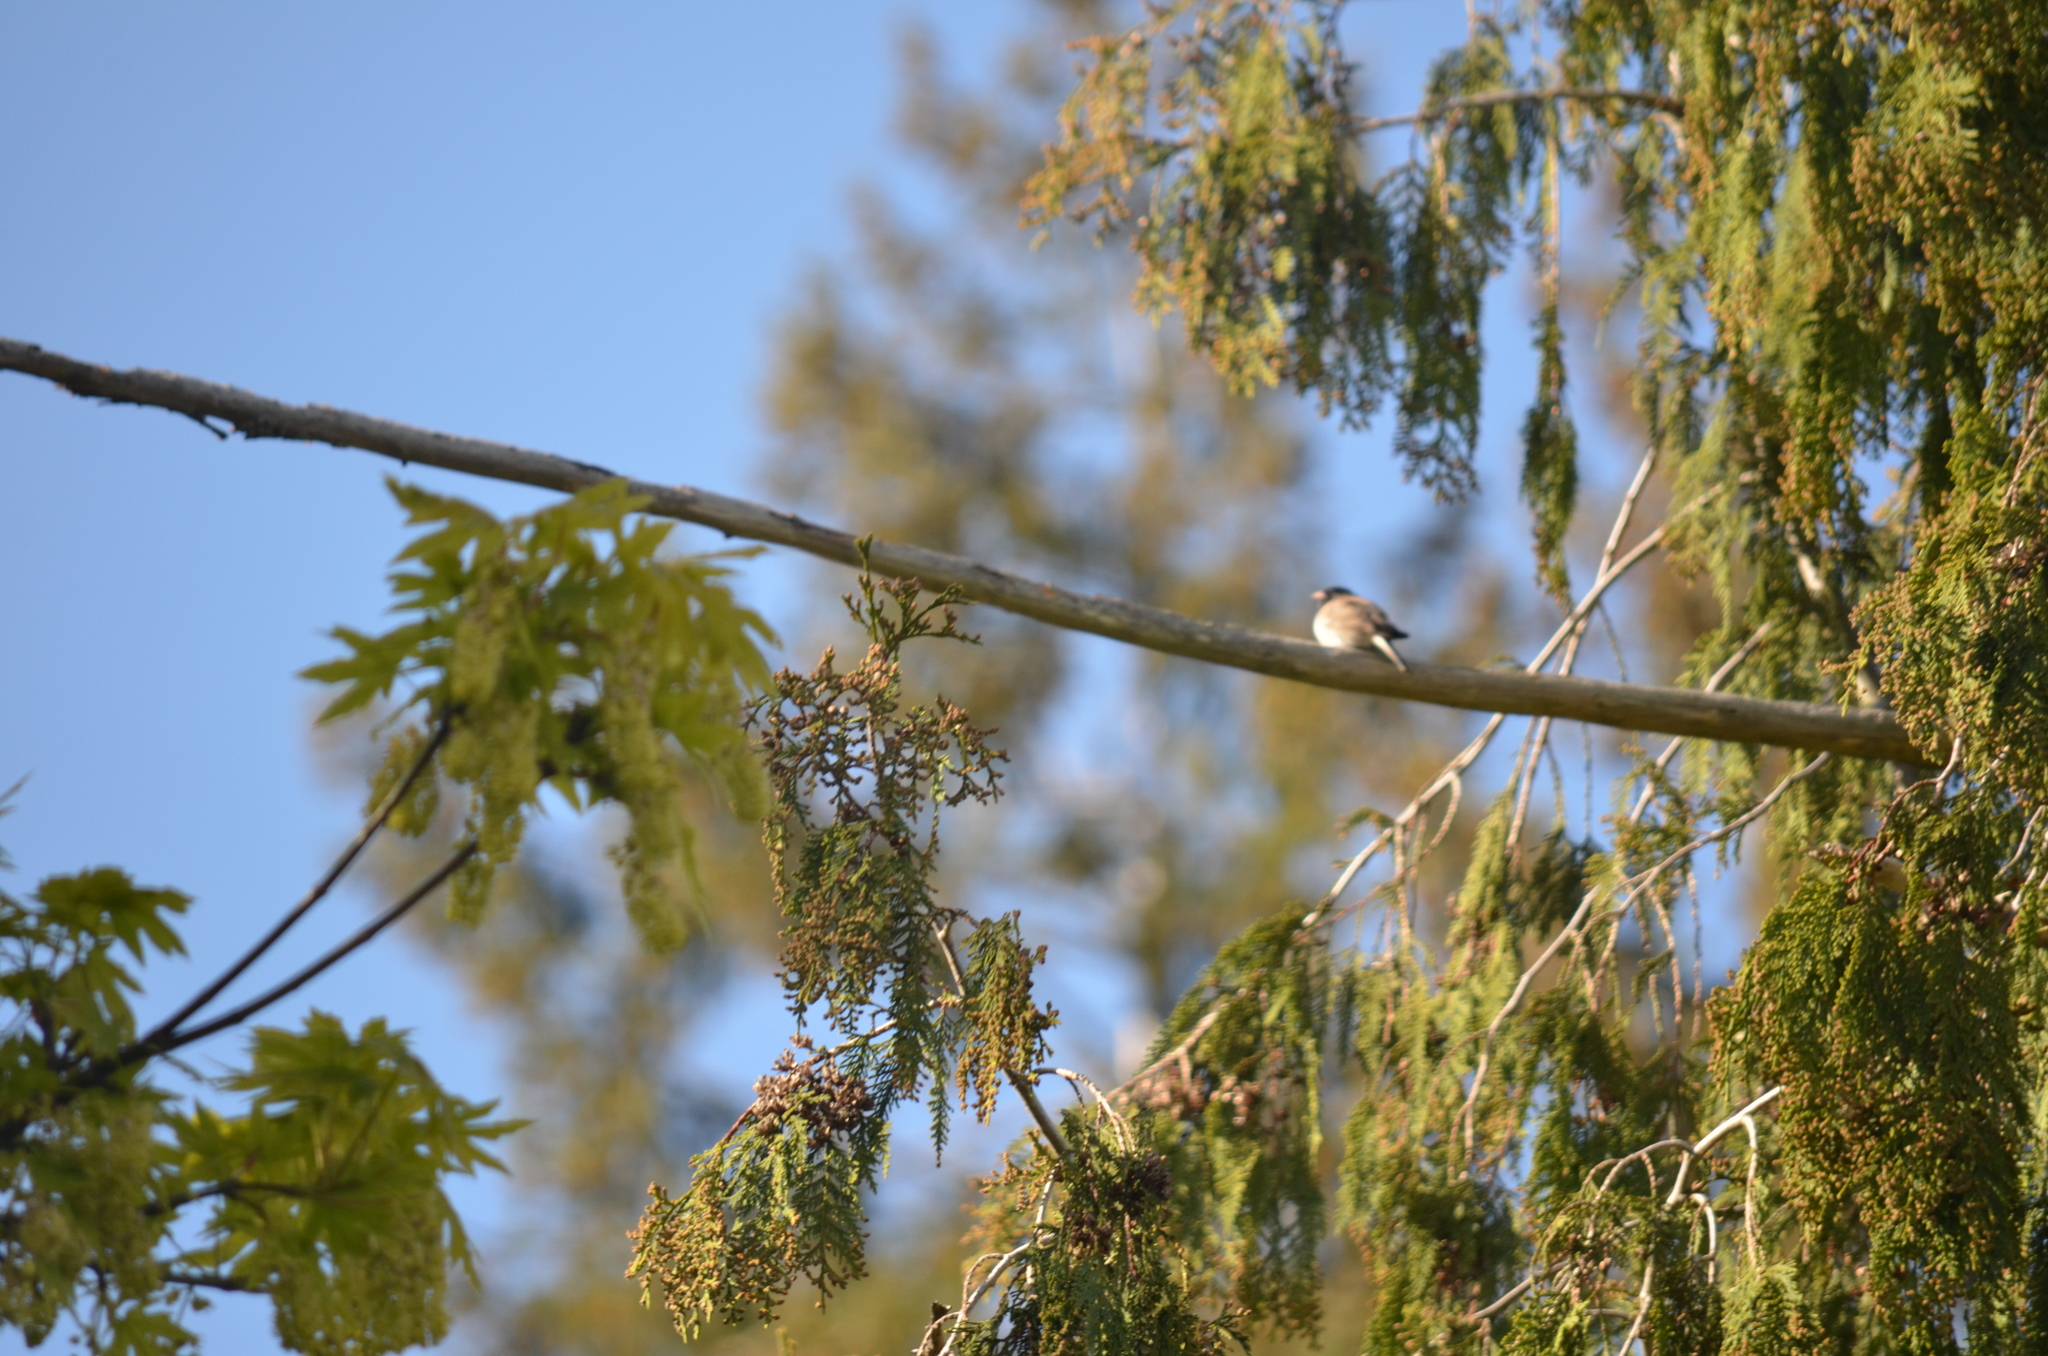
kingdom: Animalia
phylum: Chordata
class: Aves
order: Passeriformes
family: Passerellidae
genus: Junco
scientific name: Junco hyemalis
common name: Dark-eyed junco
